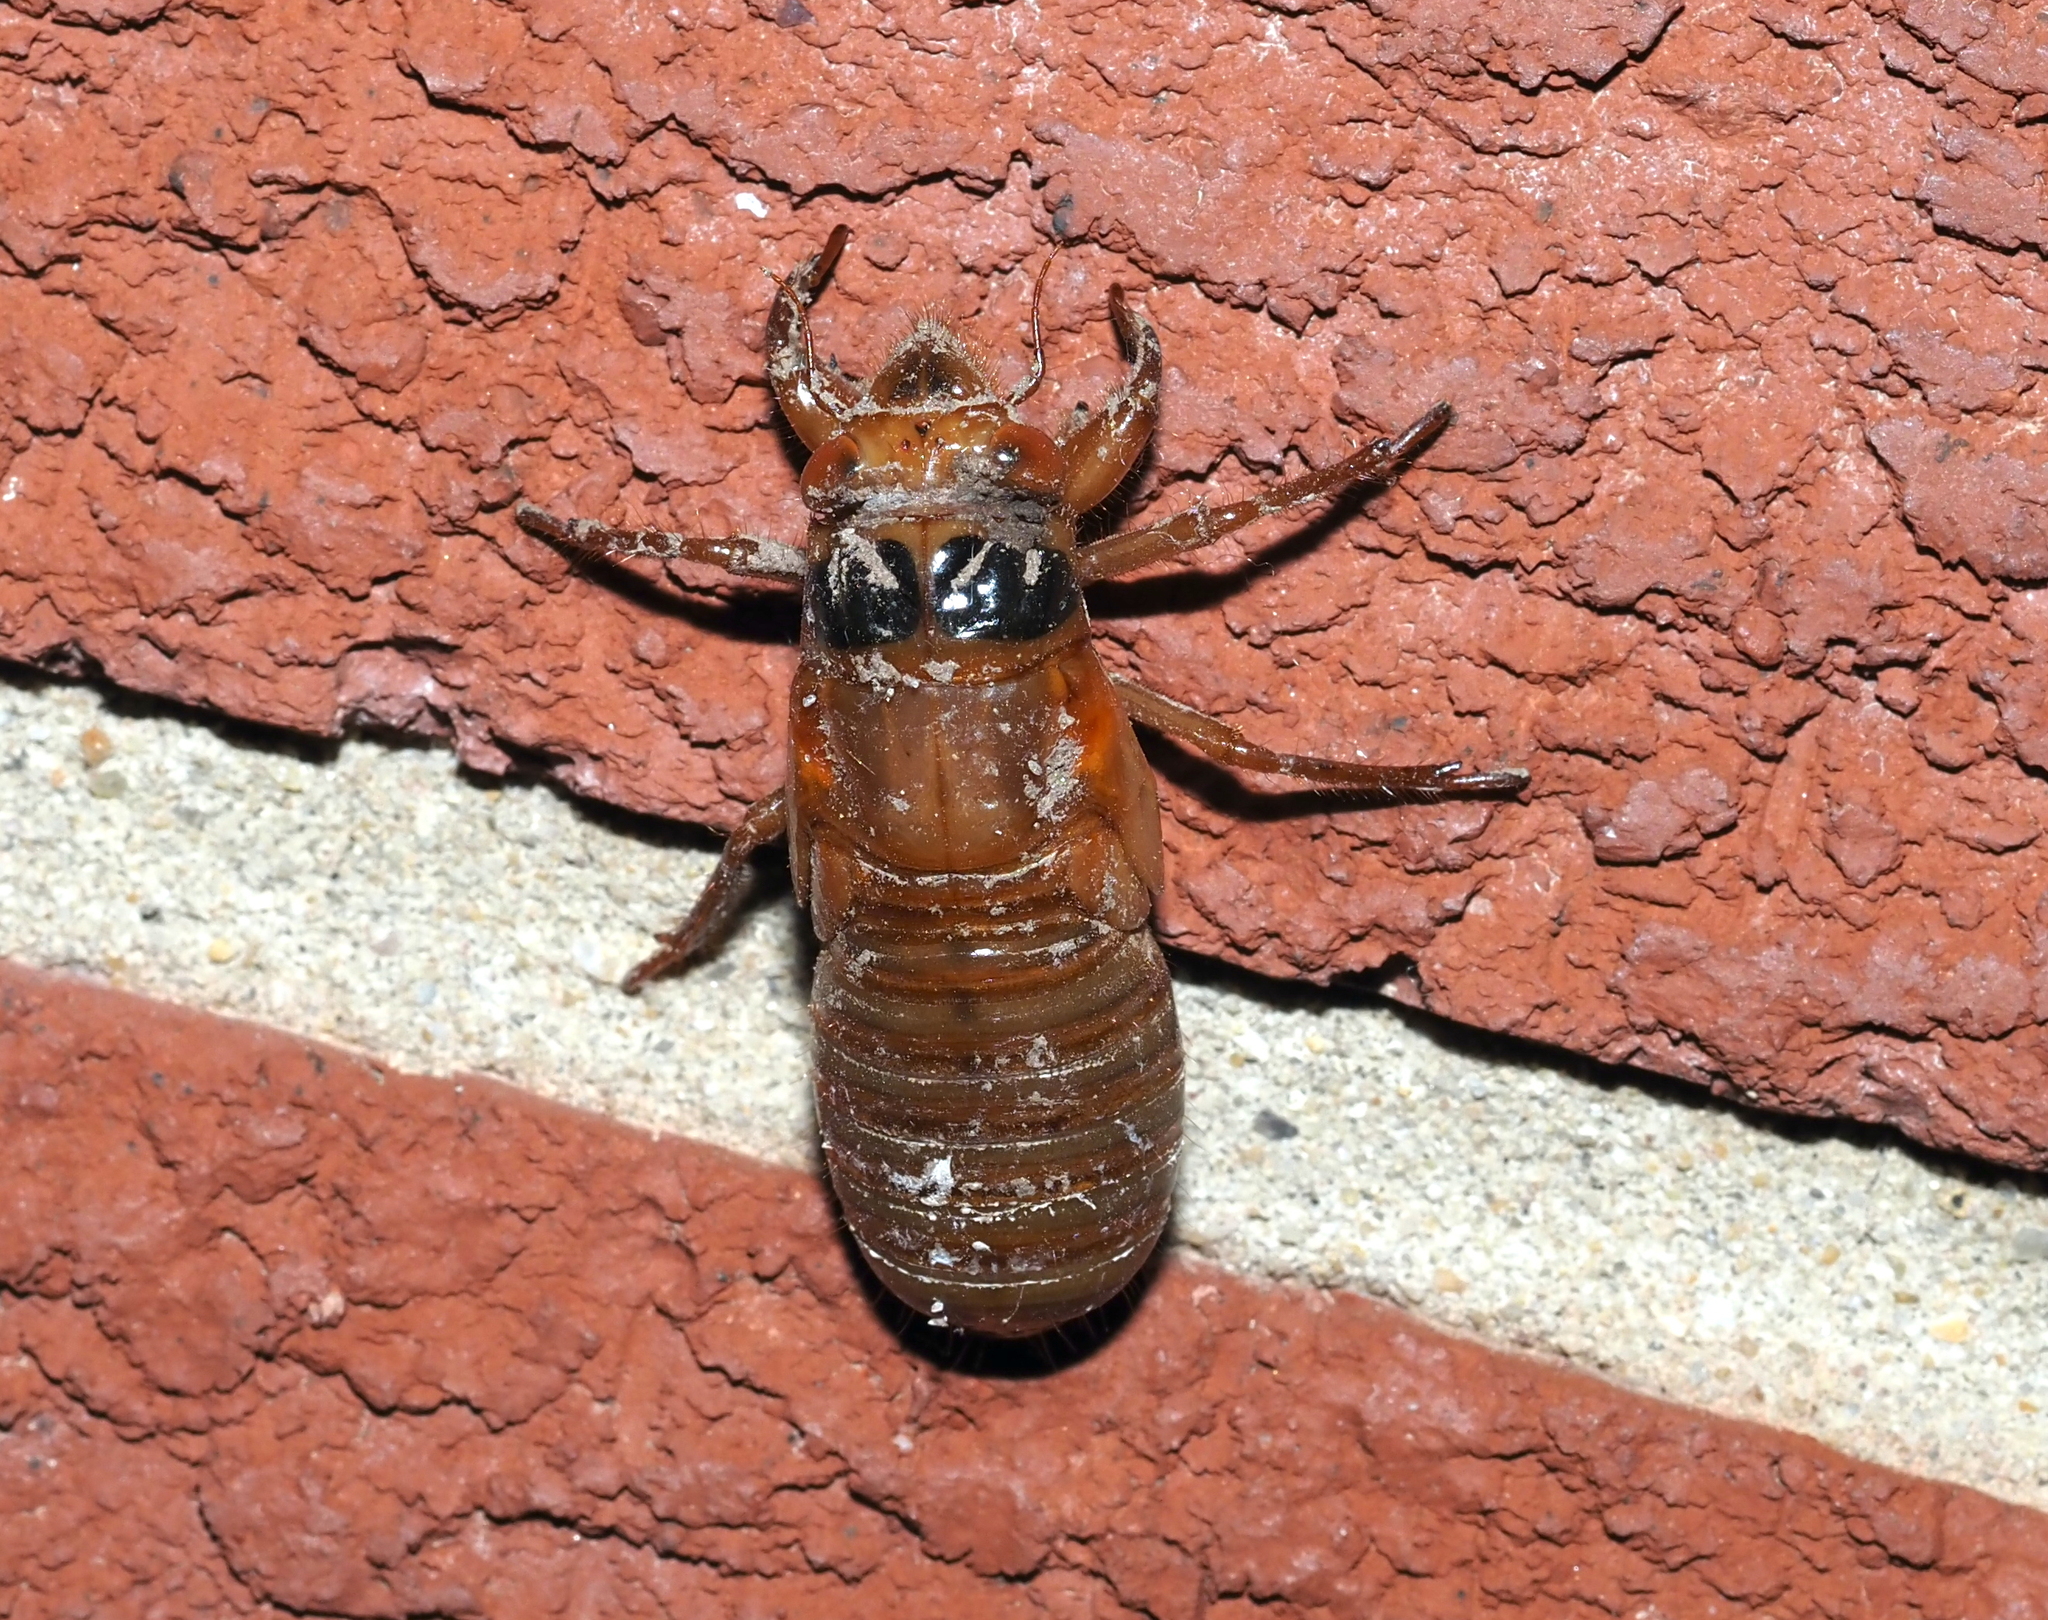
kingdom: Animalia
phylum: Arthropoda
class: Insecta
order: Hemiptera
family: Cicadidae
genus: Magicicada
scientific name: Magicicada
